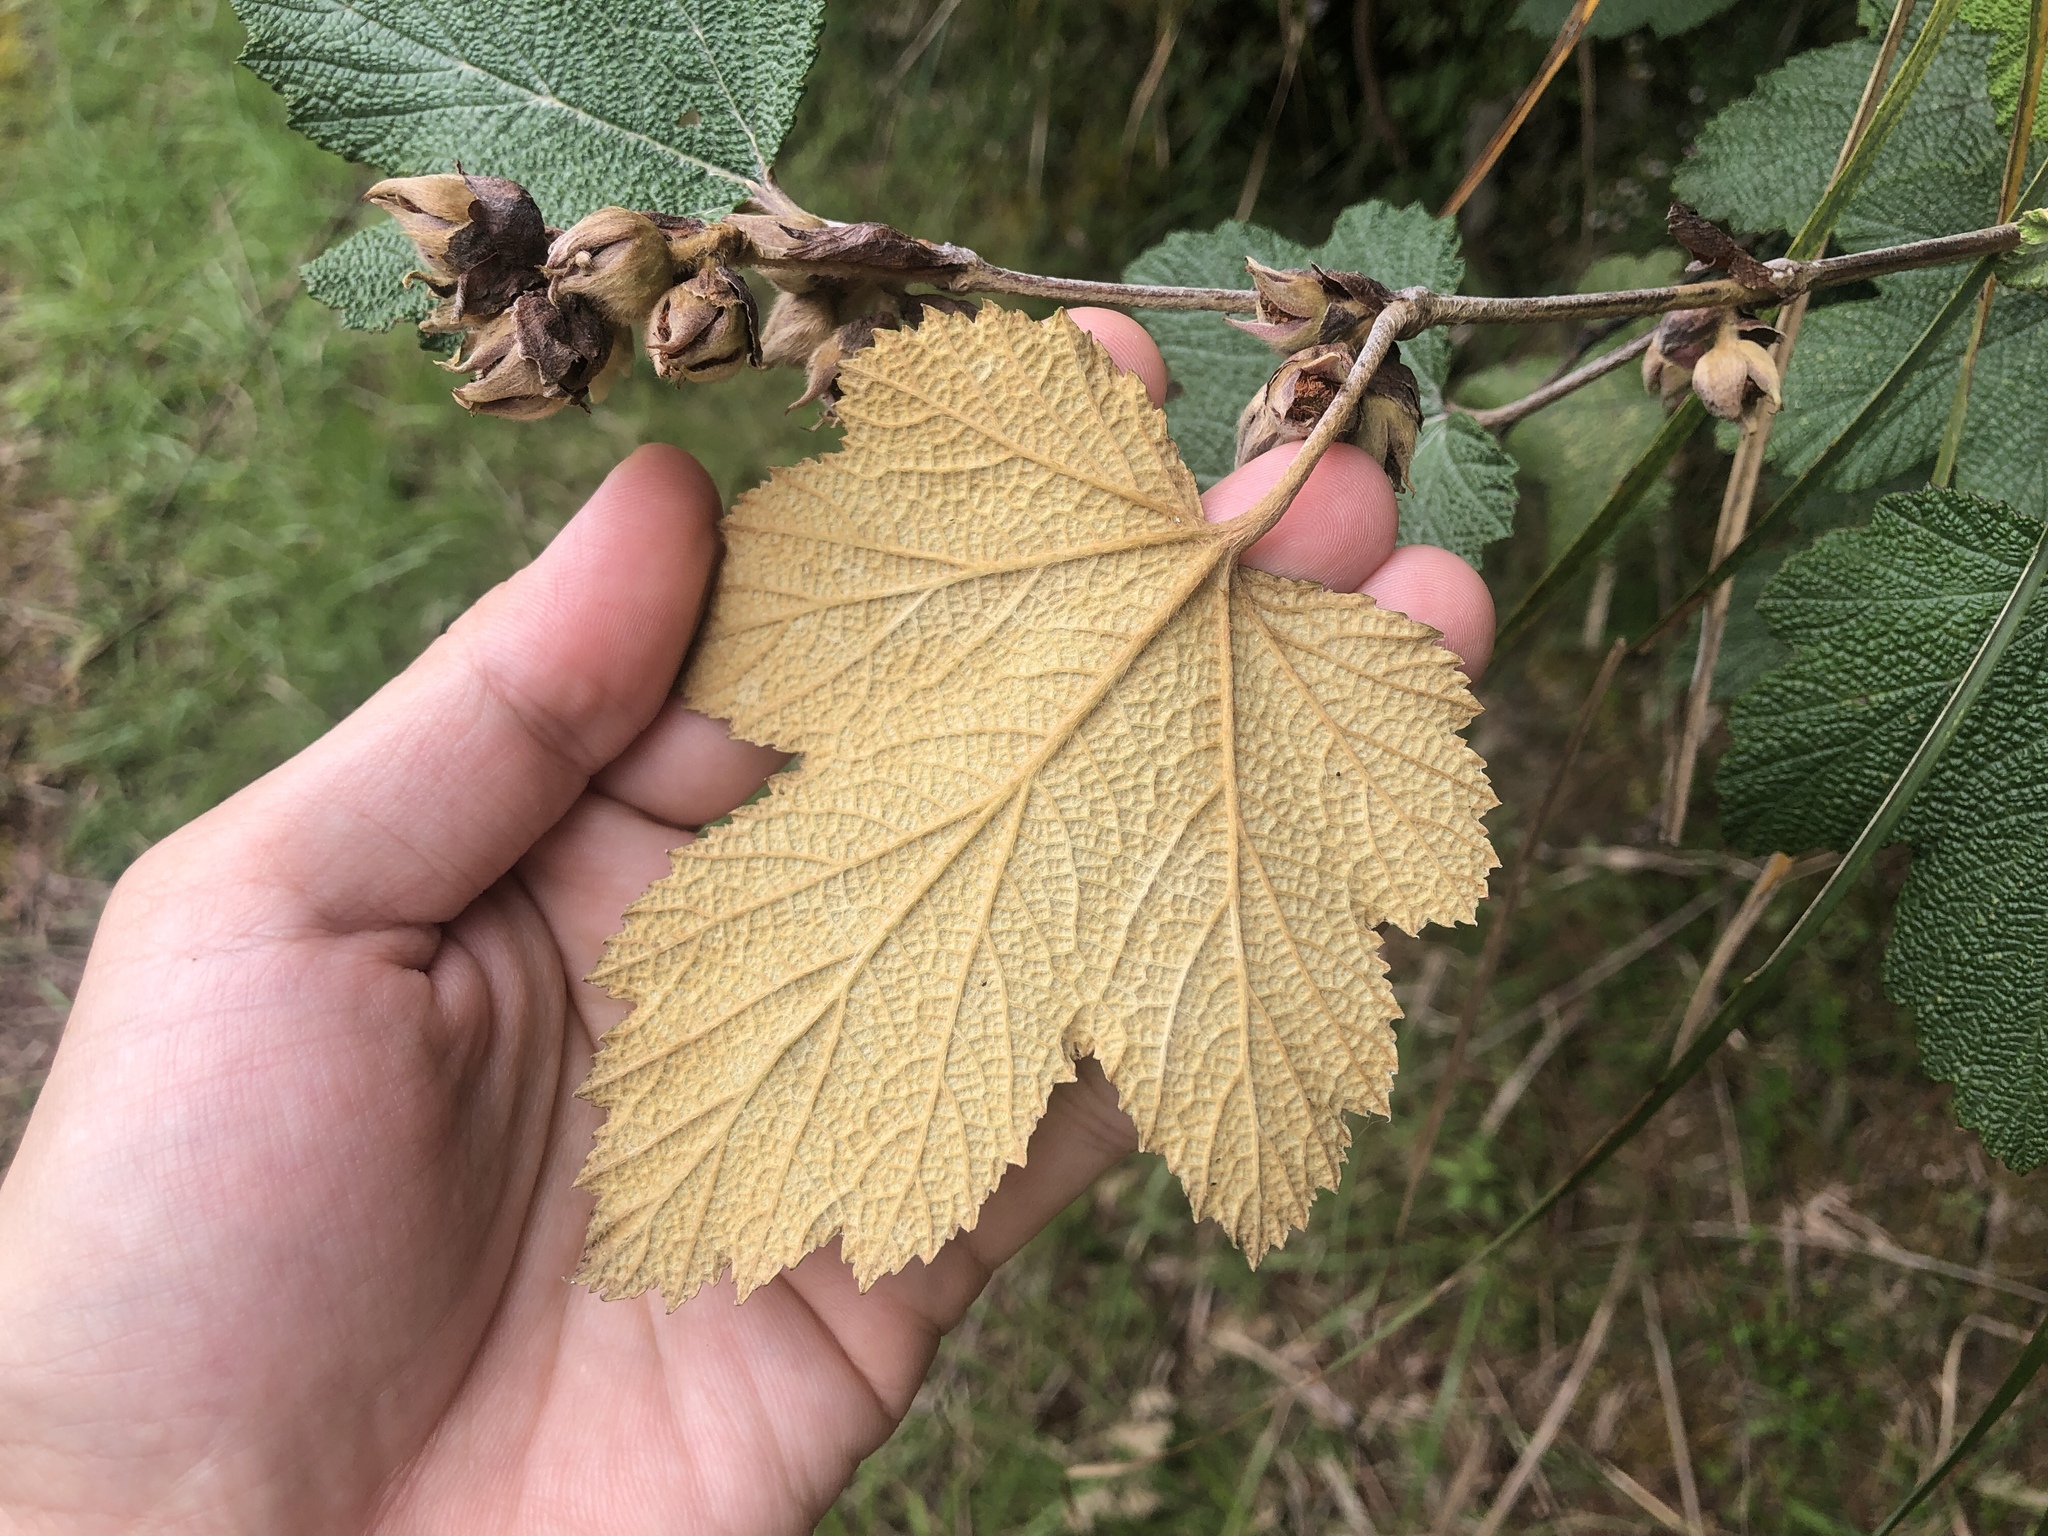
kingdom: Plantae
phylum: Tracheophyta
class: Magnoliopsida
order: Rosales
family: Rosaceae
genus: Rubus
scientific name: Rubus formosensis
